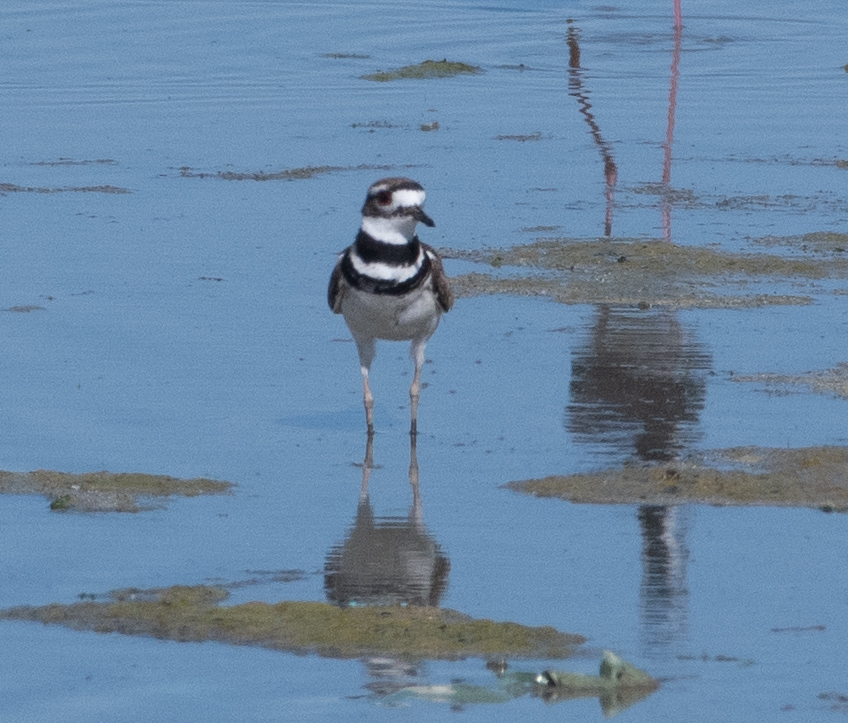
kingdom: Animalia
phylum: Chordata
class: Aves
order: Charadriiformes
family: Charadriidae
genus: Charadrius
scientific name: Charadrius vociferus
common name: Killdeer
